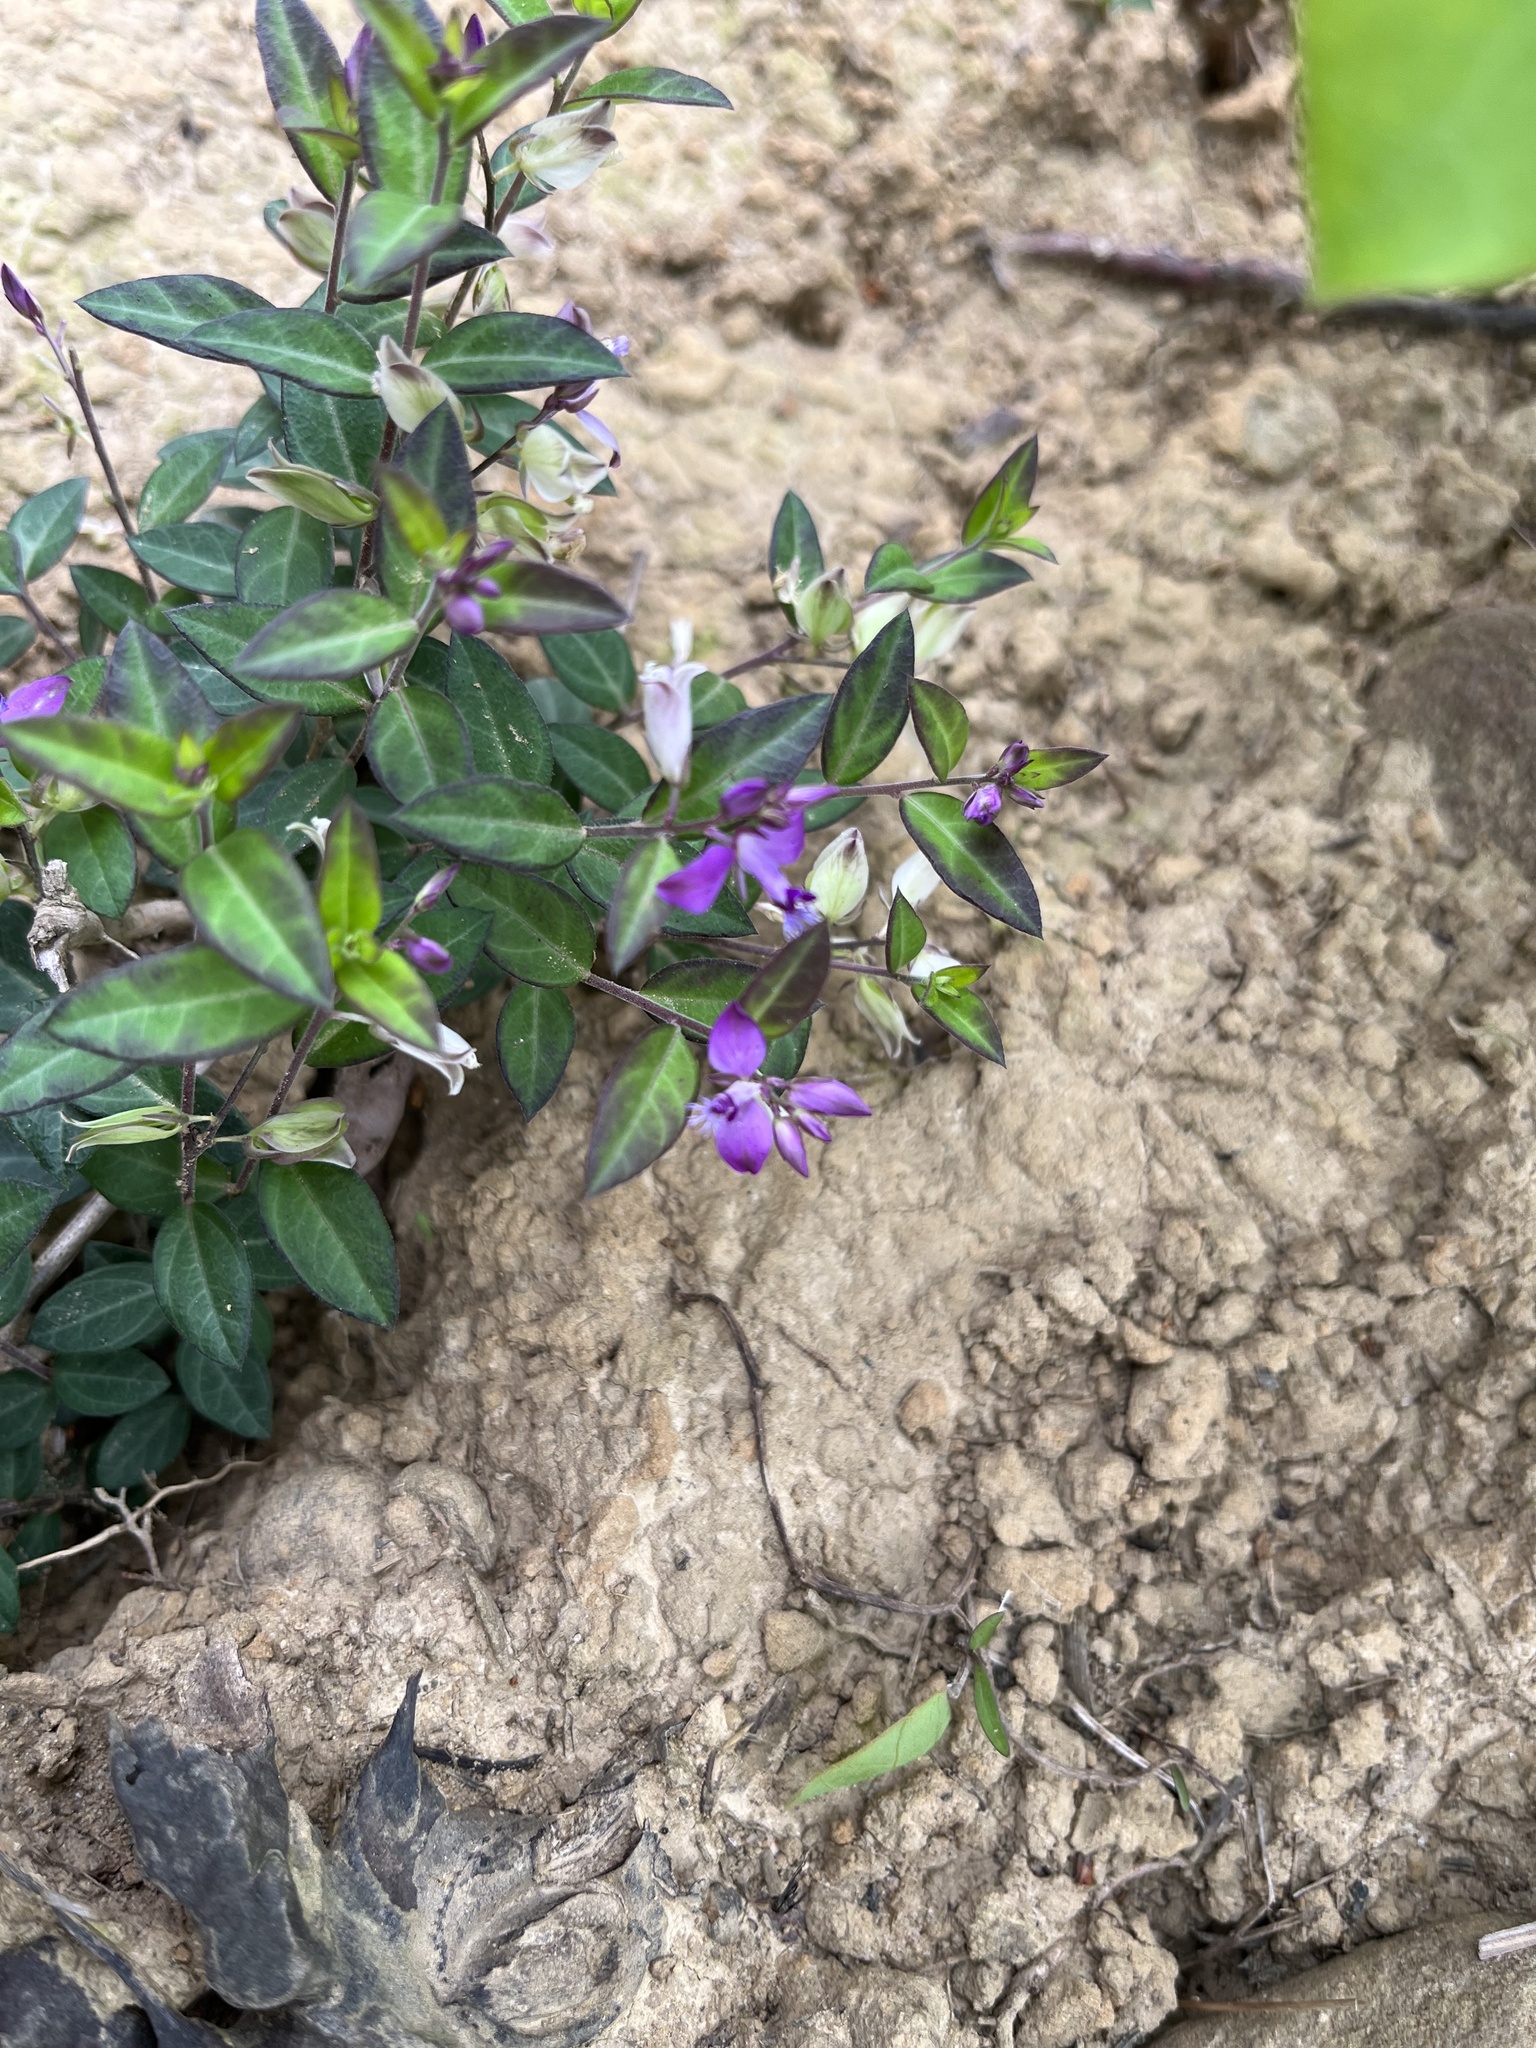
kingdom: Plantae
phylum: Tracheophyta
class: Magnoliopsida
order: Fabales
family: Polygalaceae
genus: Polygala
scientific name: Polygala japonica
